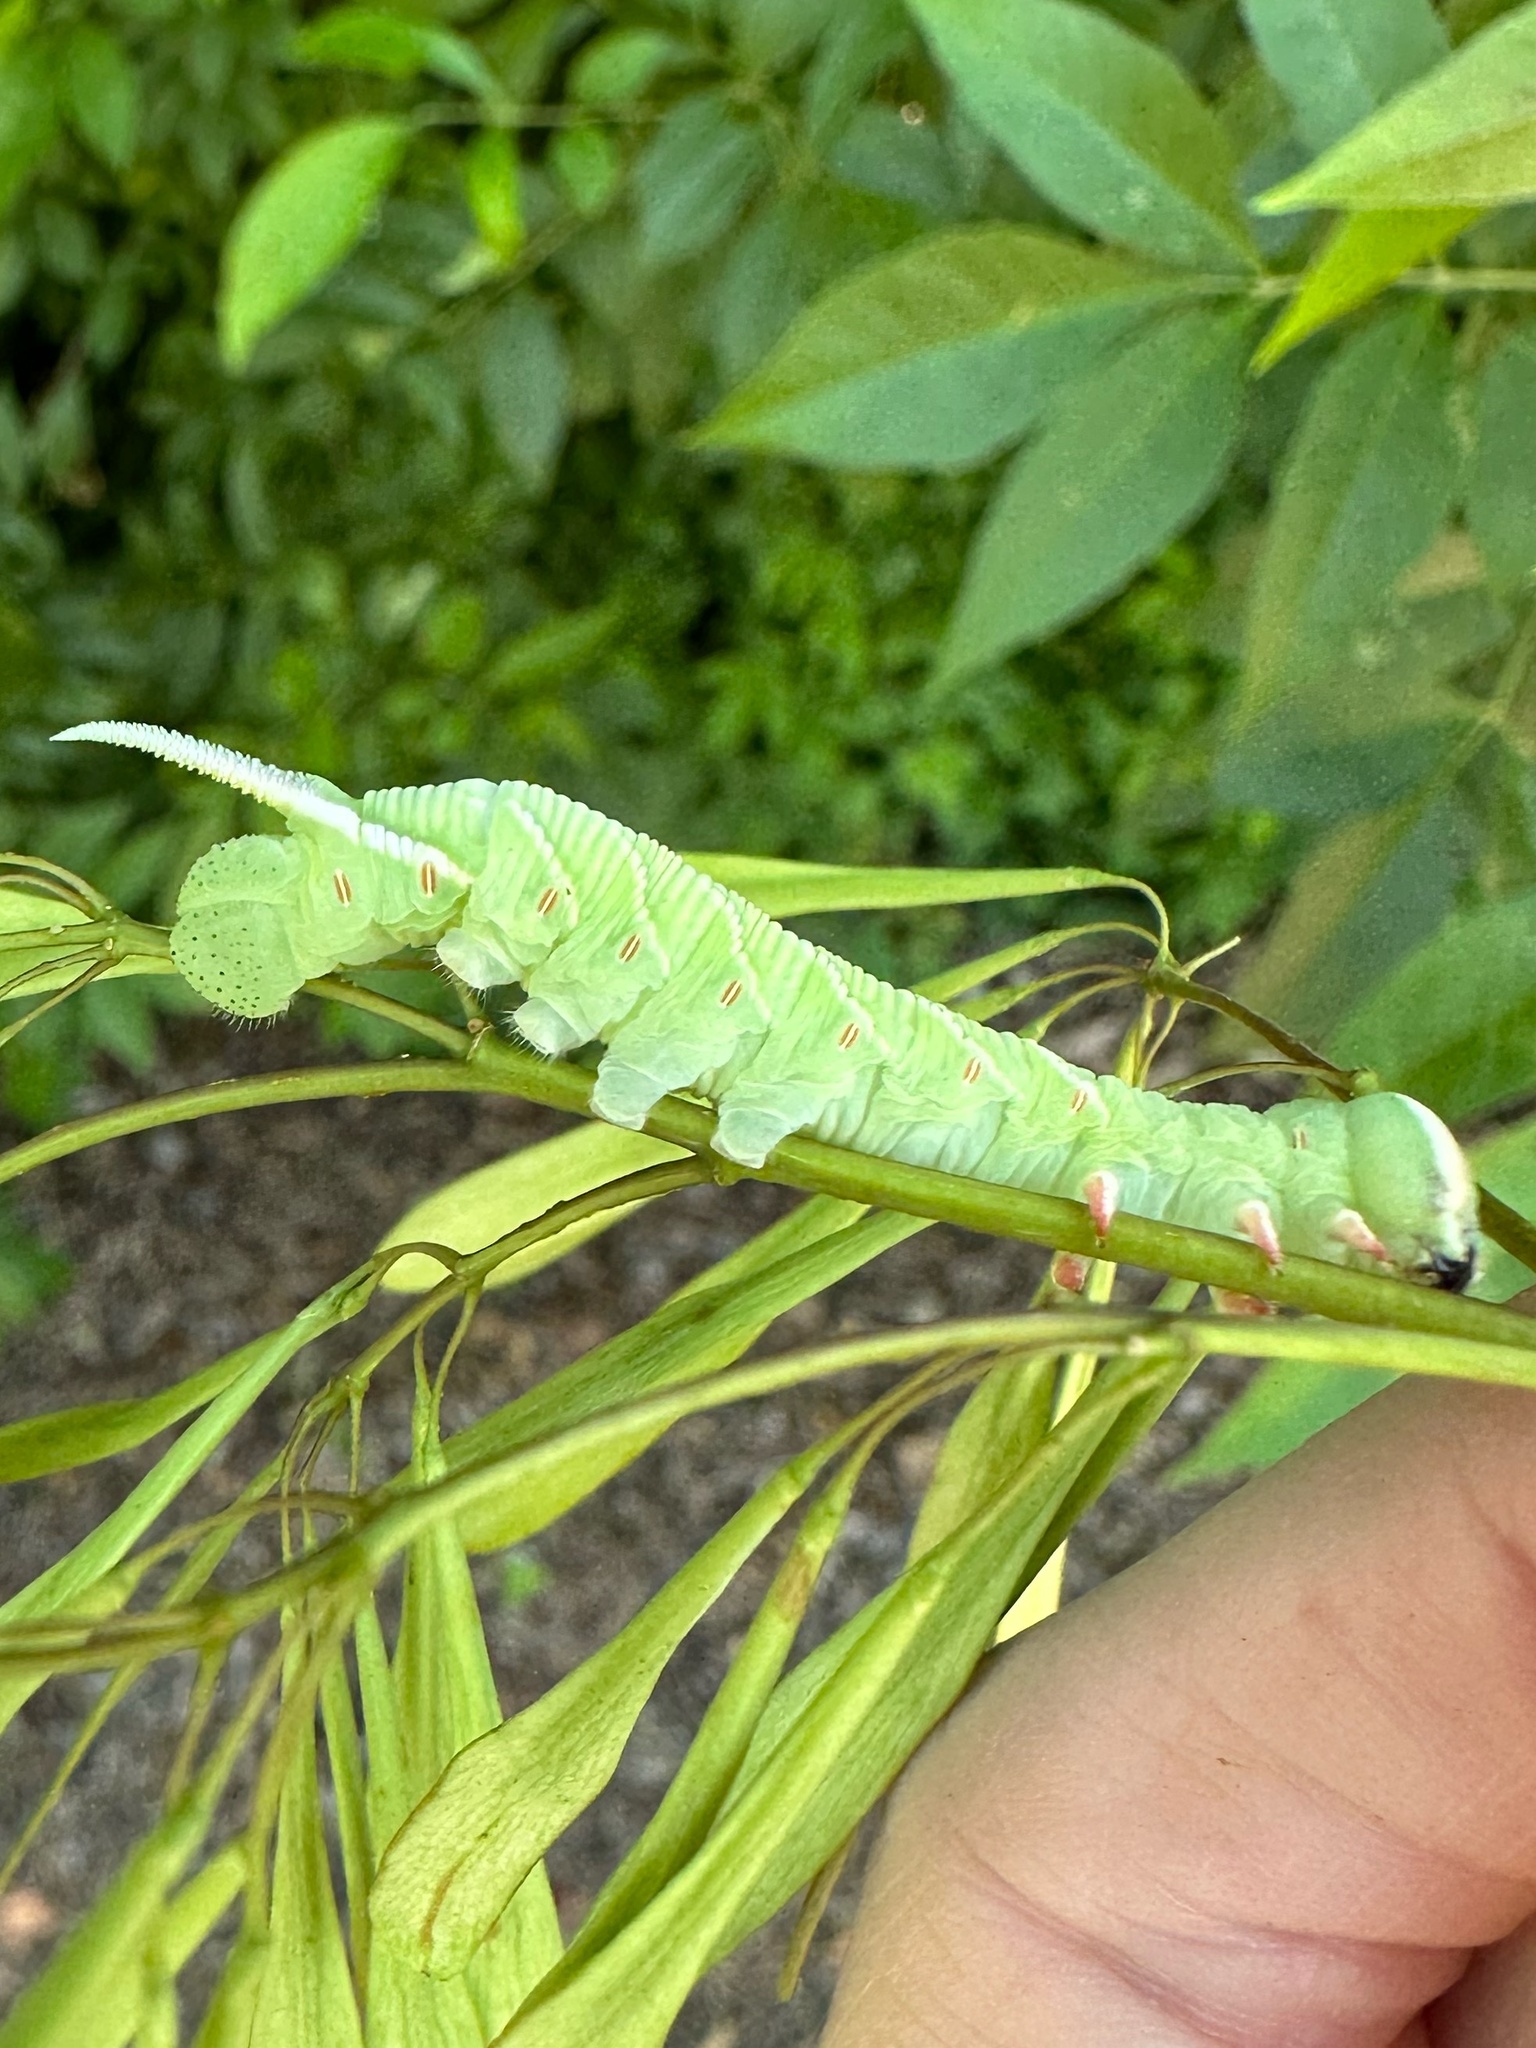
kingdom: Animalia
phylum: Arthropoda
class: Insecta
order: Lepidoptera
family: Sphingidae
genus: Ceratomia
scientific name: Ceratomia undulosa
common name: Waved sphinx
